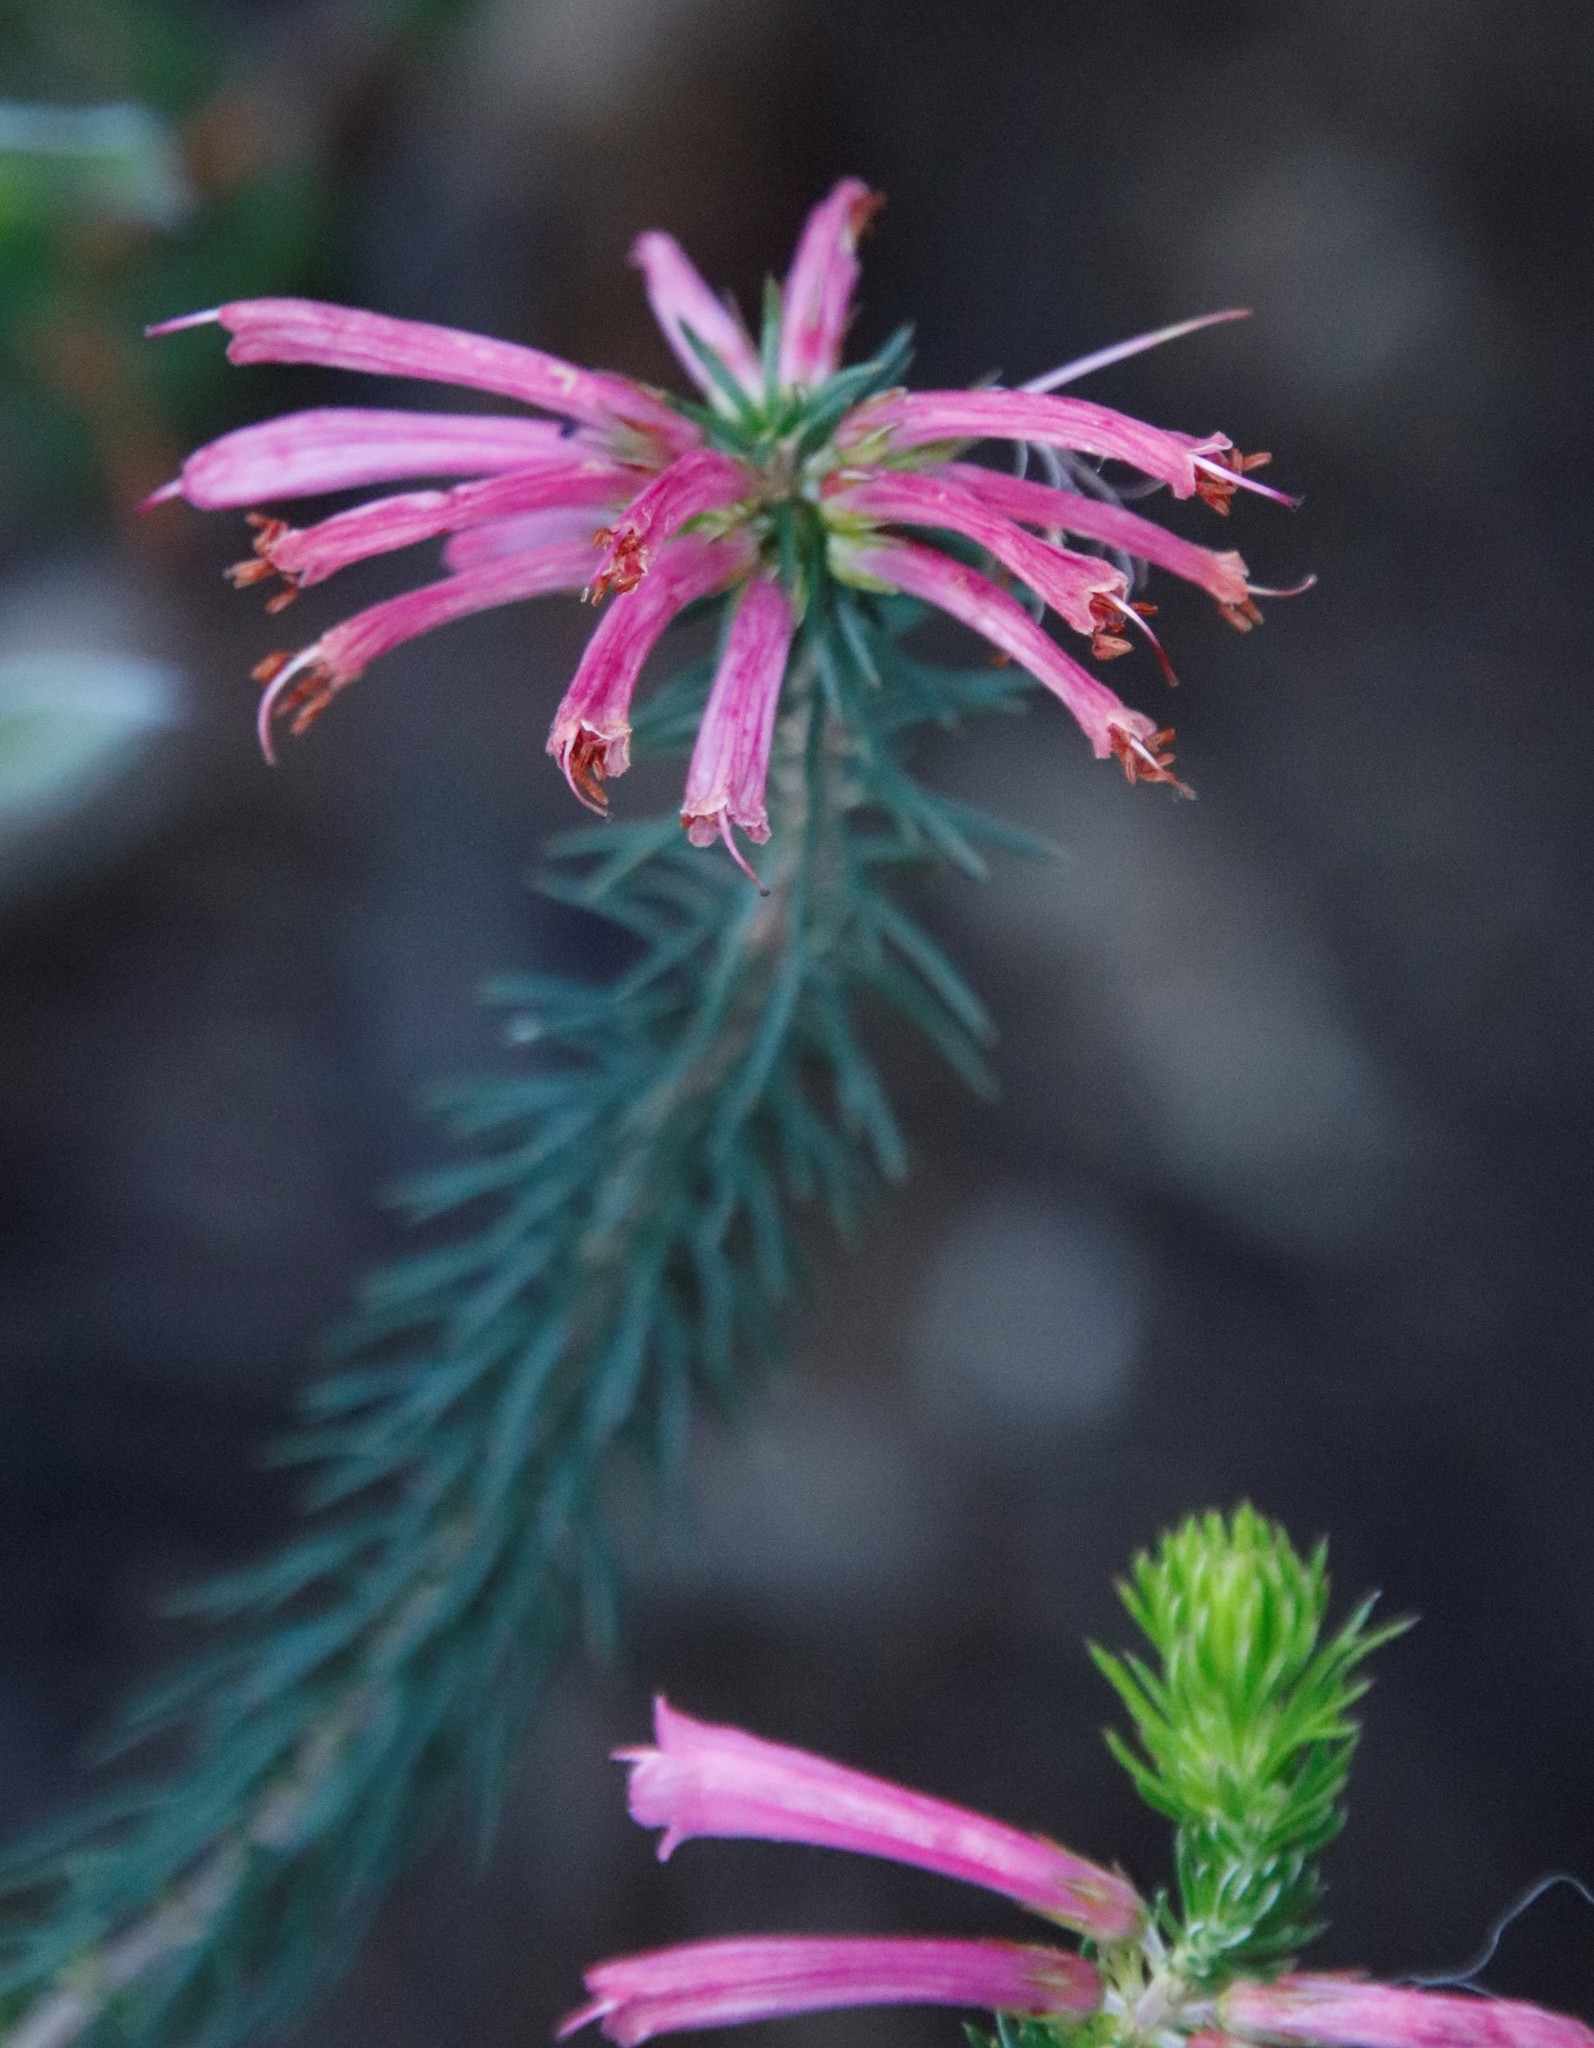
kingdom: Plantae
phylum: Tracheophyta
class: Magnoliopsida
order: Ericales
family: Ericaceae
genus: Erica
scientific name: Erica abietina
